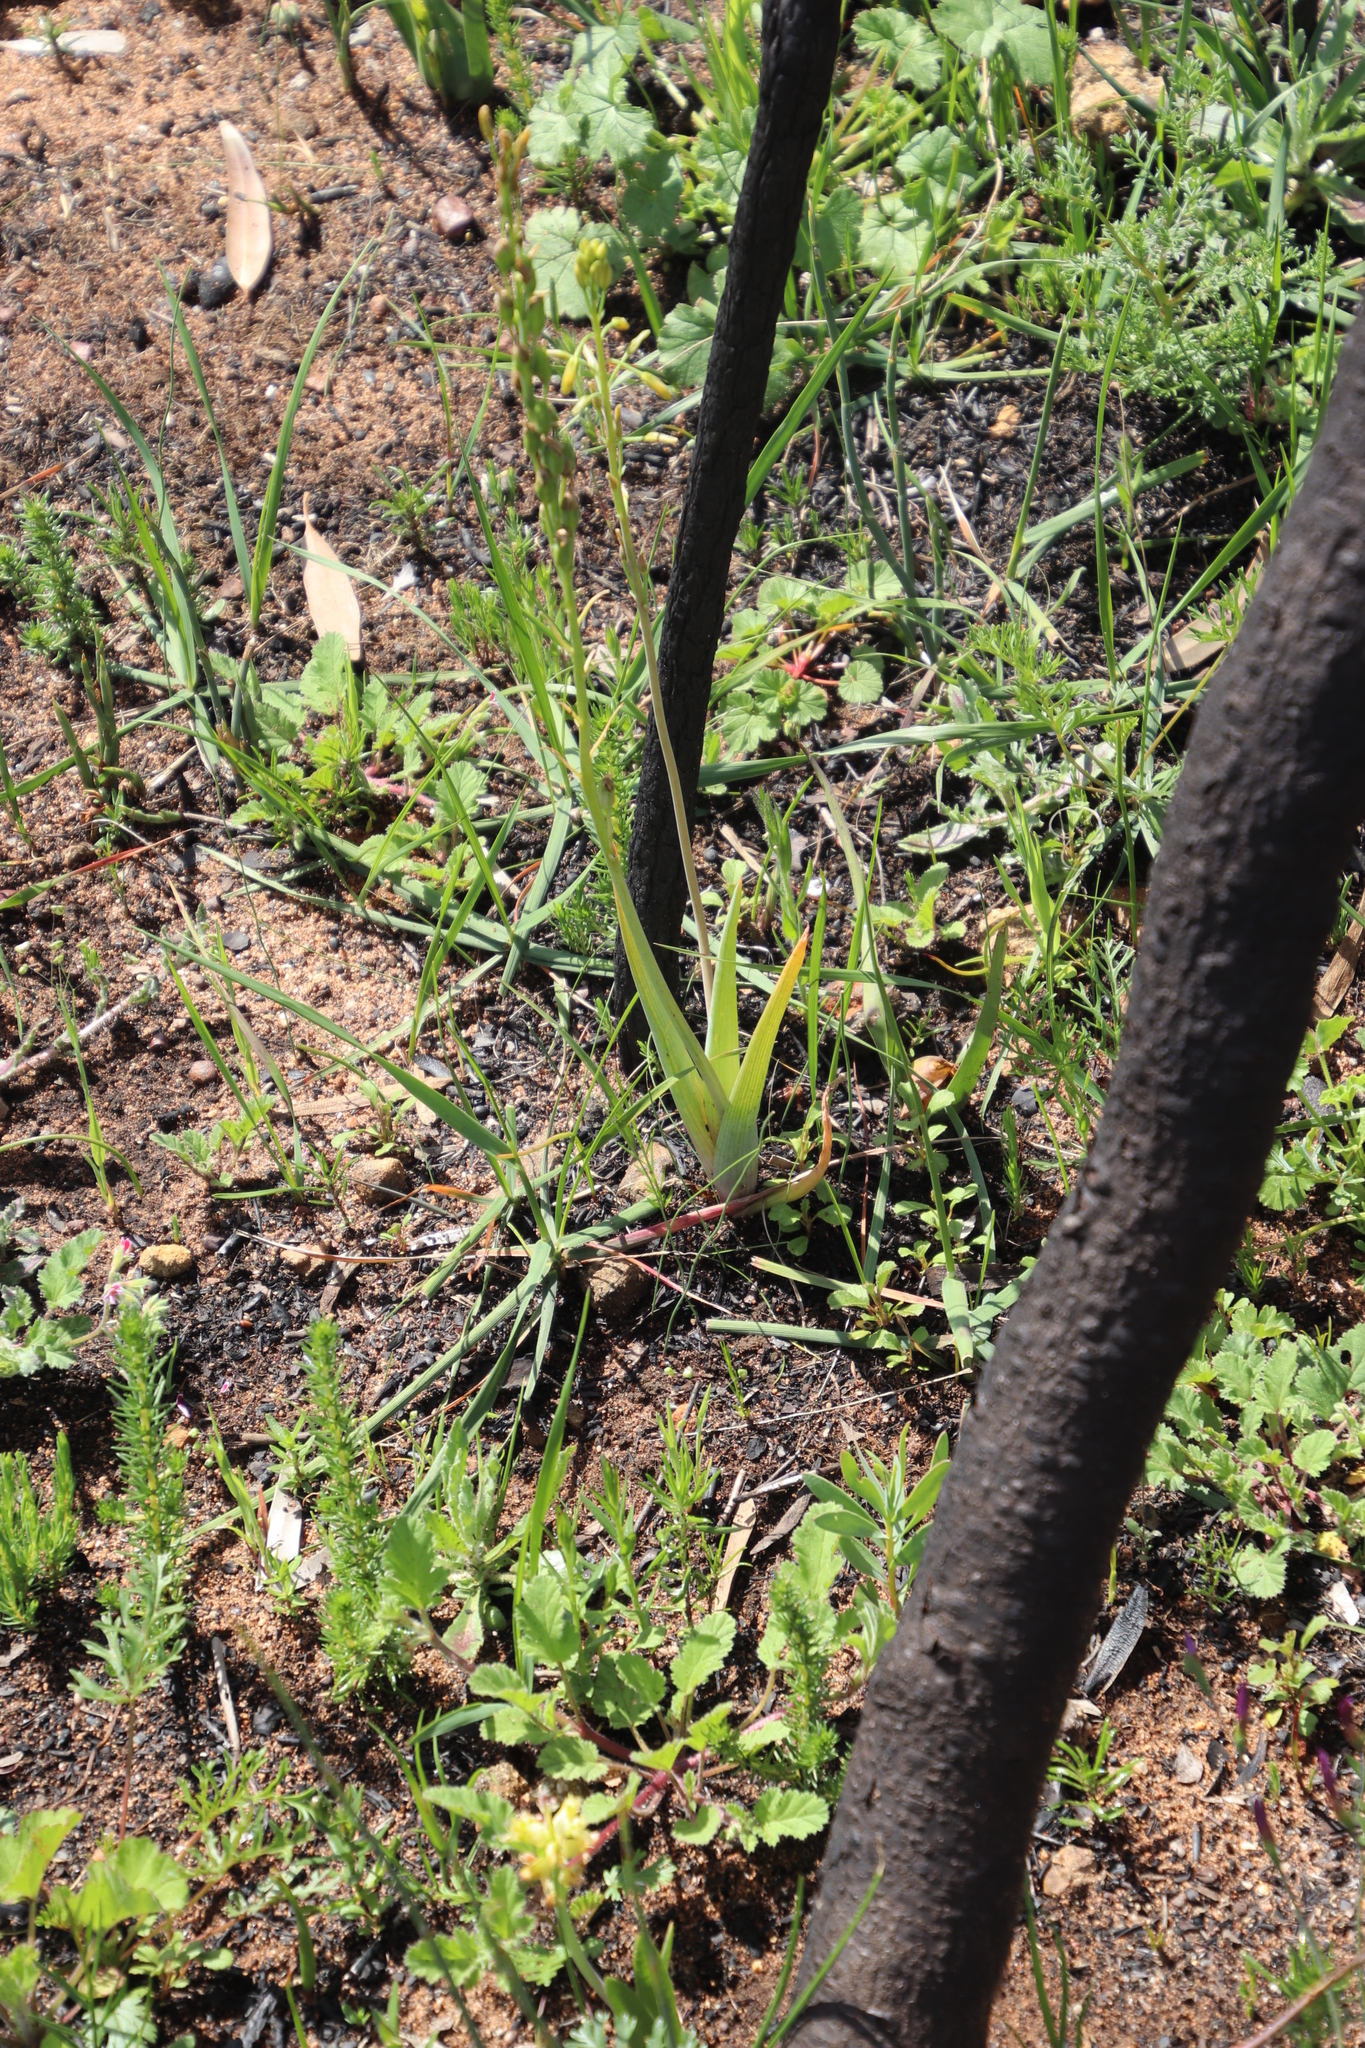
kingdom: Plantae
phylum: Tracheophyta
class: Liliopsida
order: Asparagales
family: Asphodelaceae
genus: Bulbine
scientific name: Bulbine praemorsa
